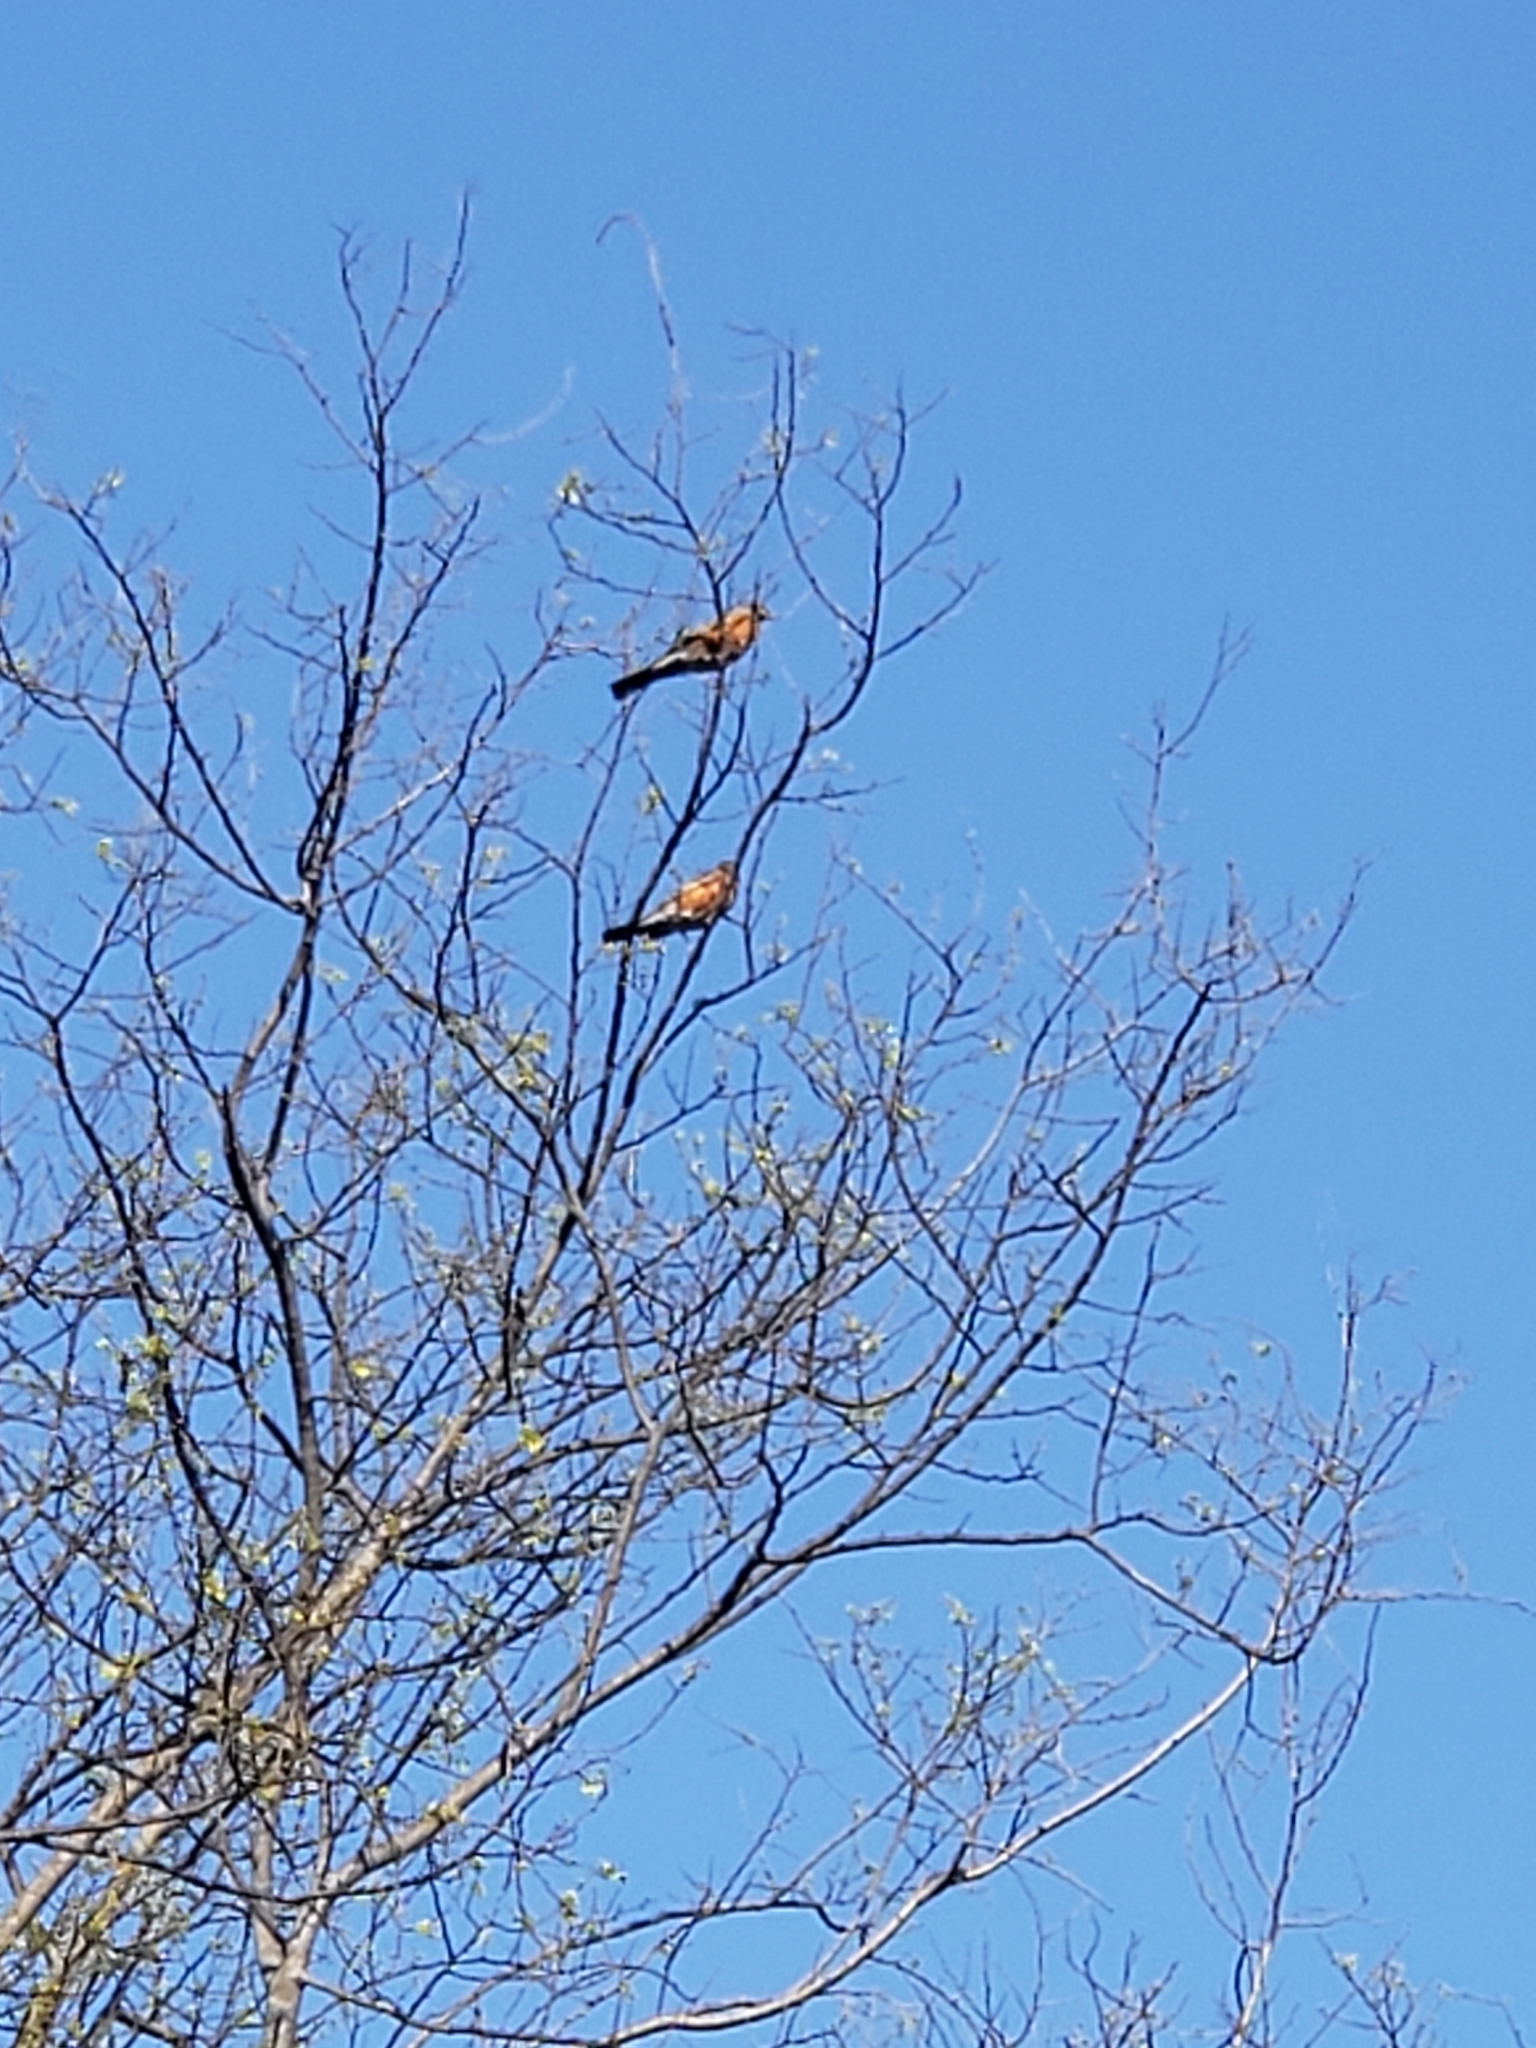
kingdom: Animalia
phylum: Chordata
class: Aves
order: Passeriformes
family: Turdidae
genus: Turdus
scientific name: Turdus migratorius
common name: American robin
